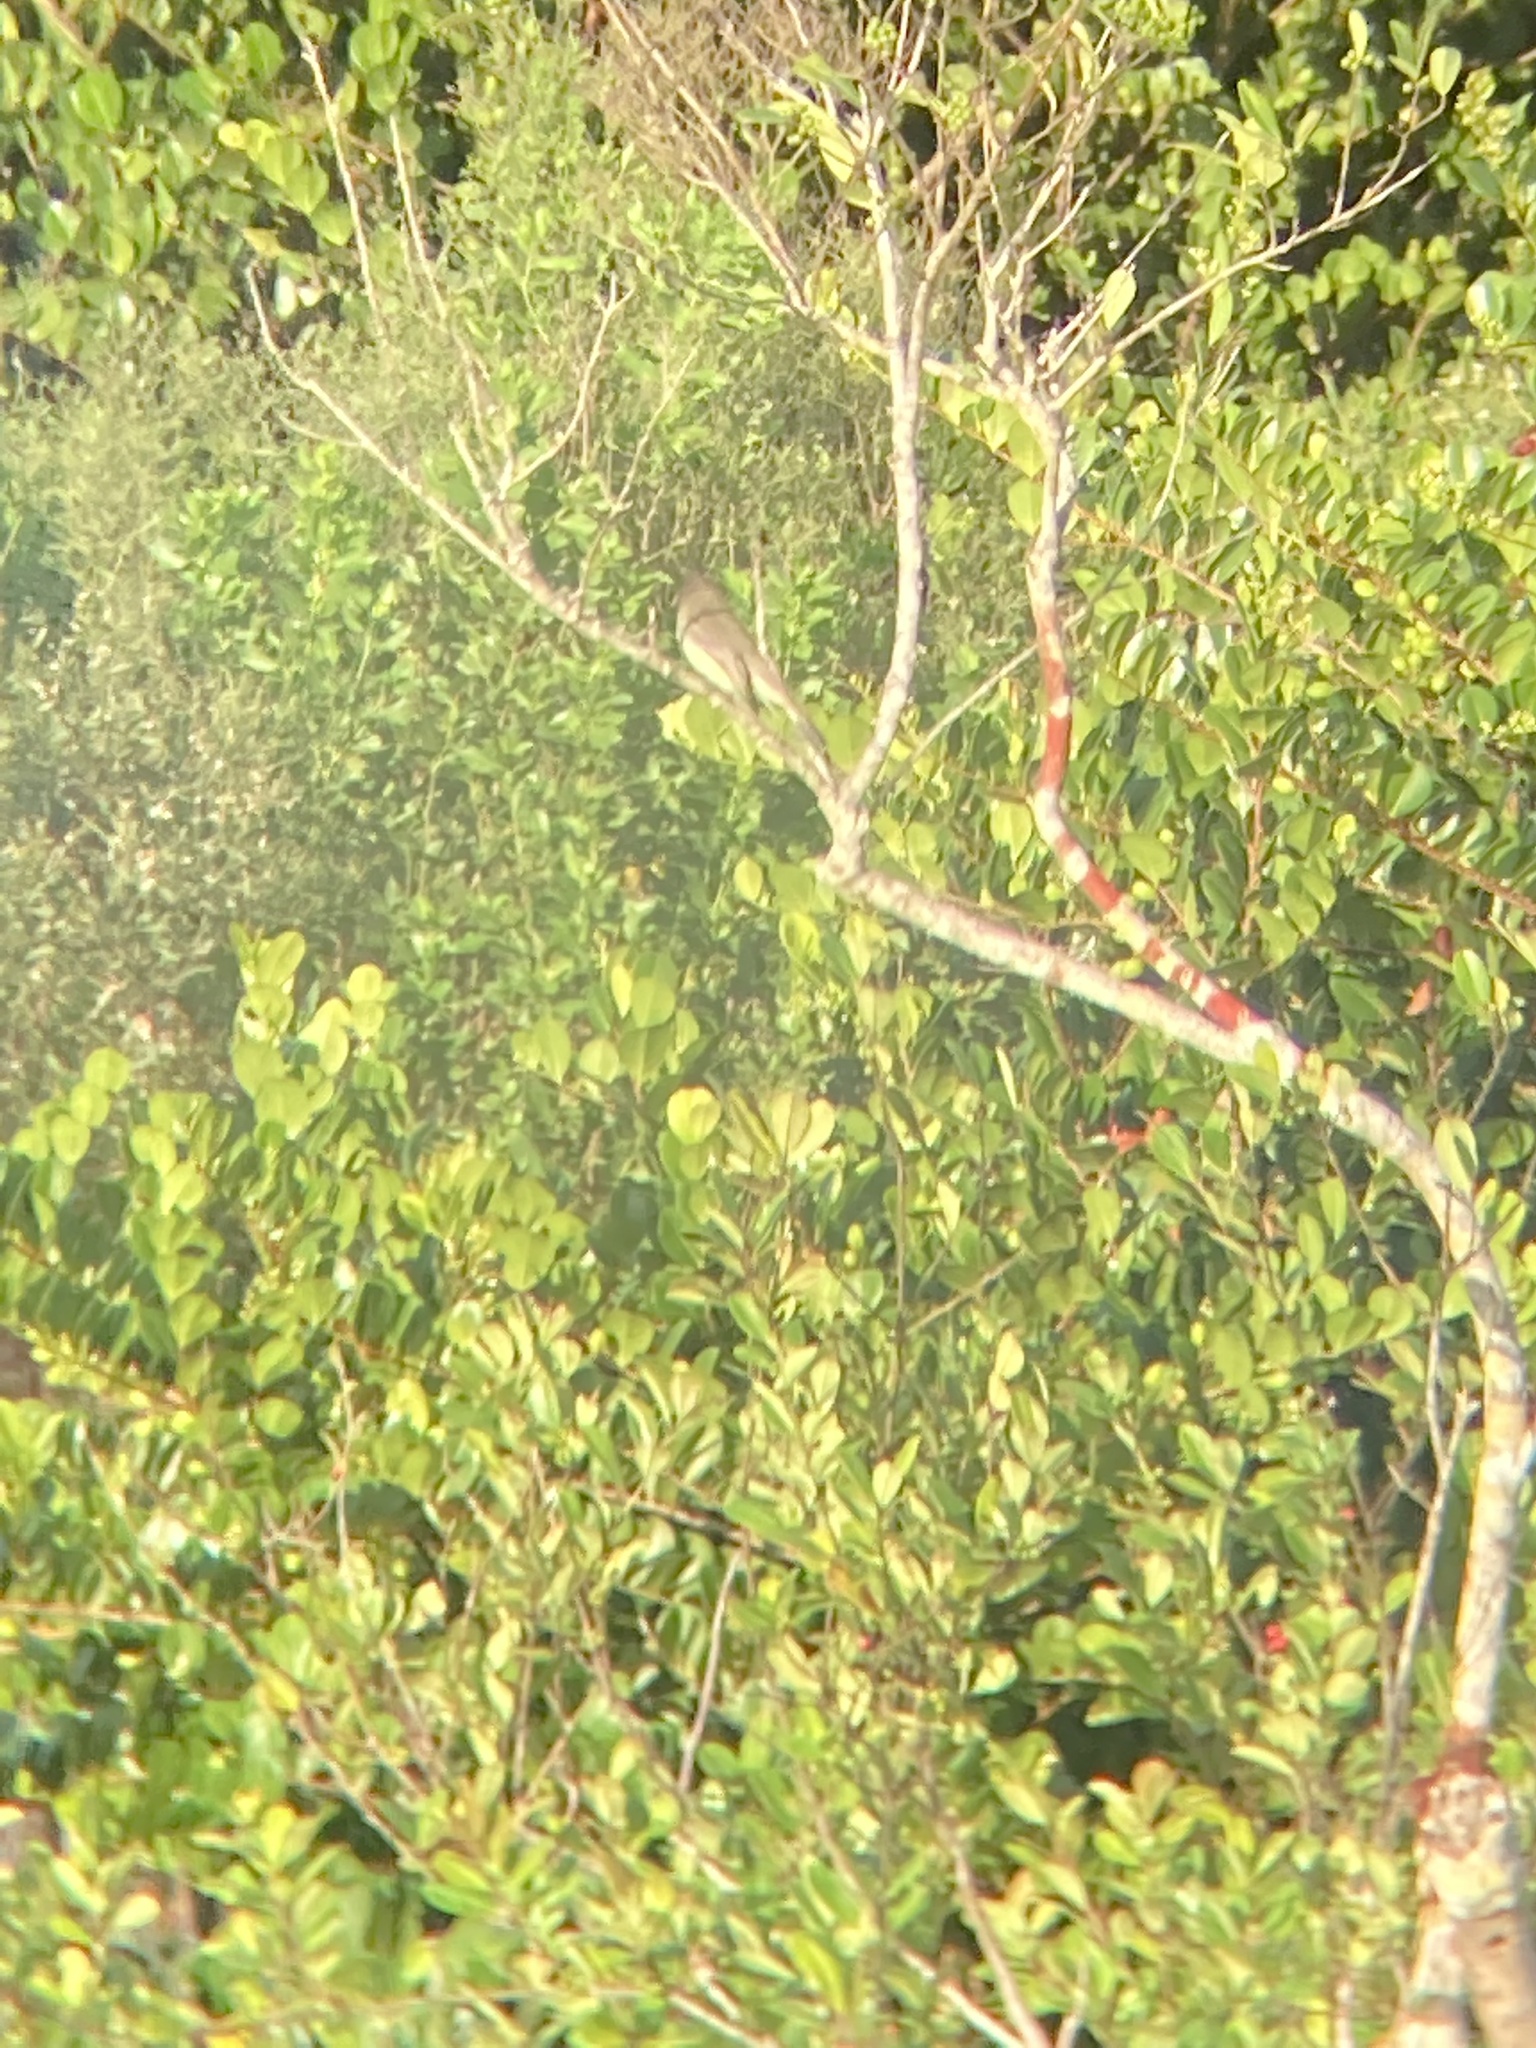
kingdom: Animalia
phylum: Chordata
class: Aves
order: Passeriformes
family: Tyrannidae
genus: Sayornis
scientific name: Sayornis phoebe
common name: Eastern phoebe
